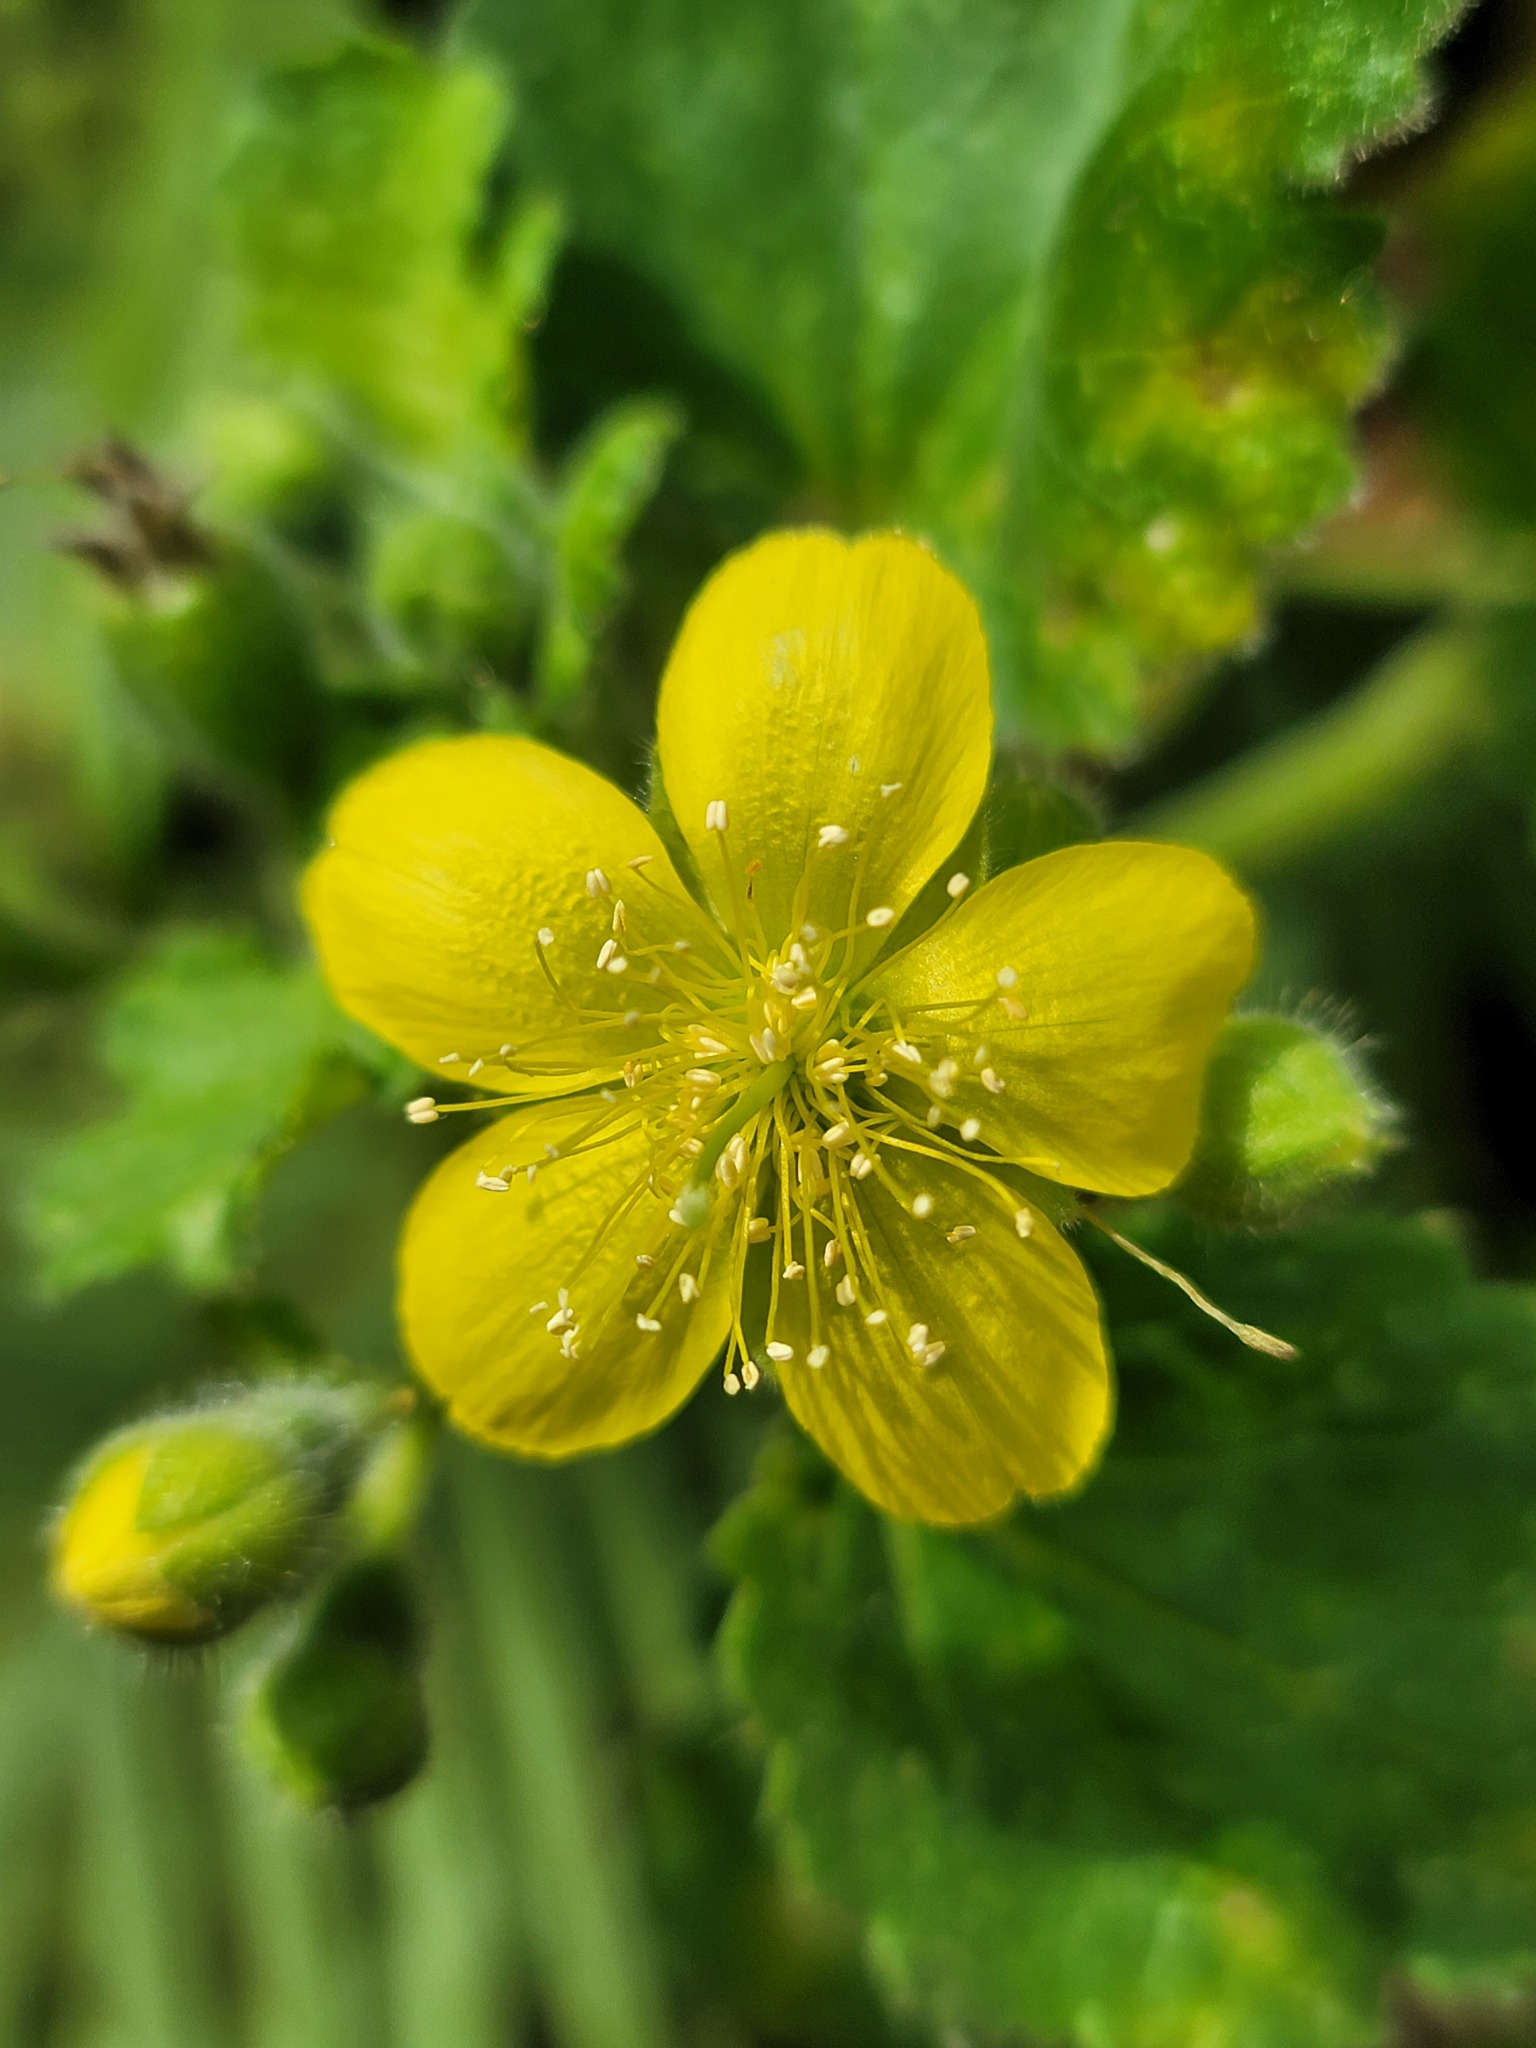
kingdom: Plantae
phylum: Tracheophyta
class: Magnoliopsida
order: Cornales
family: Loasaceae
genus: Eucnide
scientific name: Eucnide lobata
